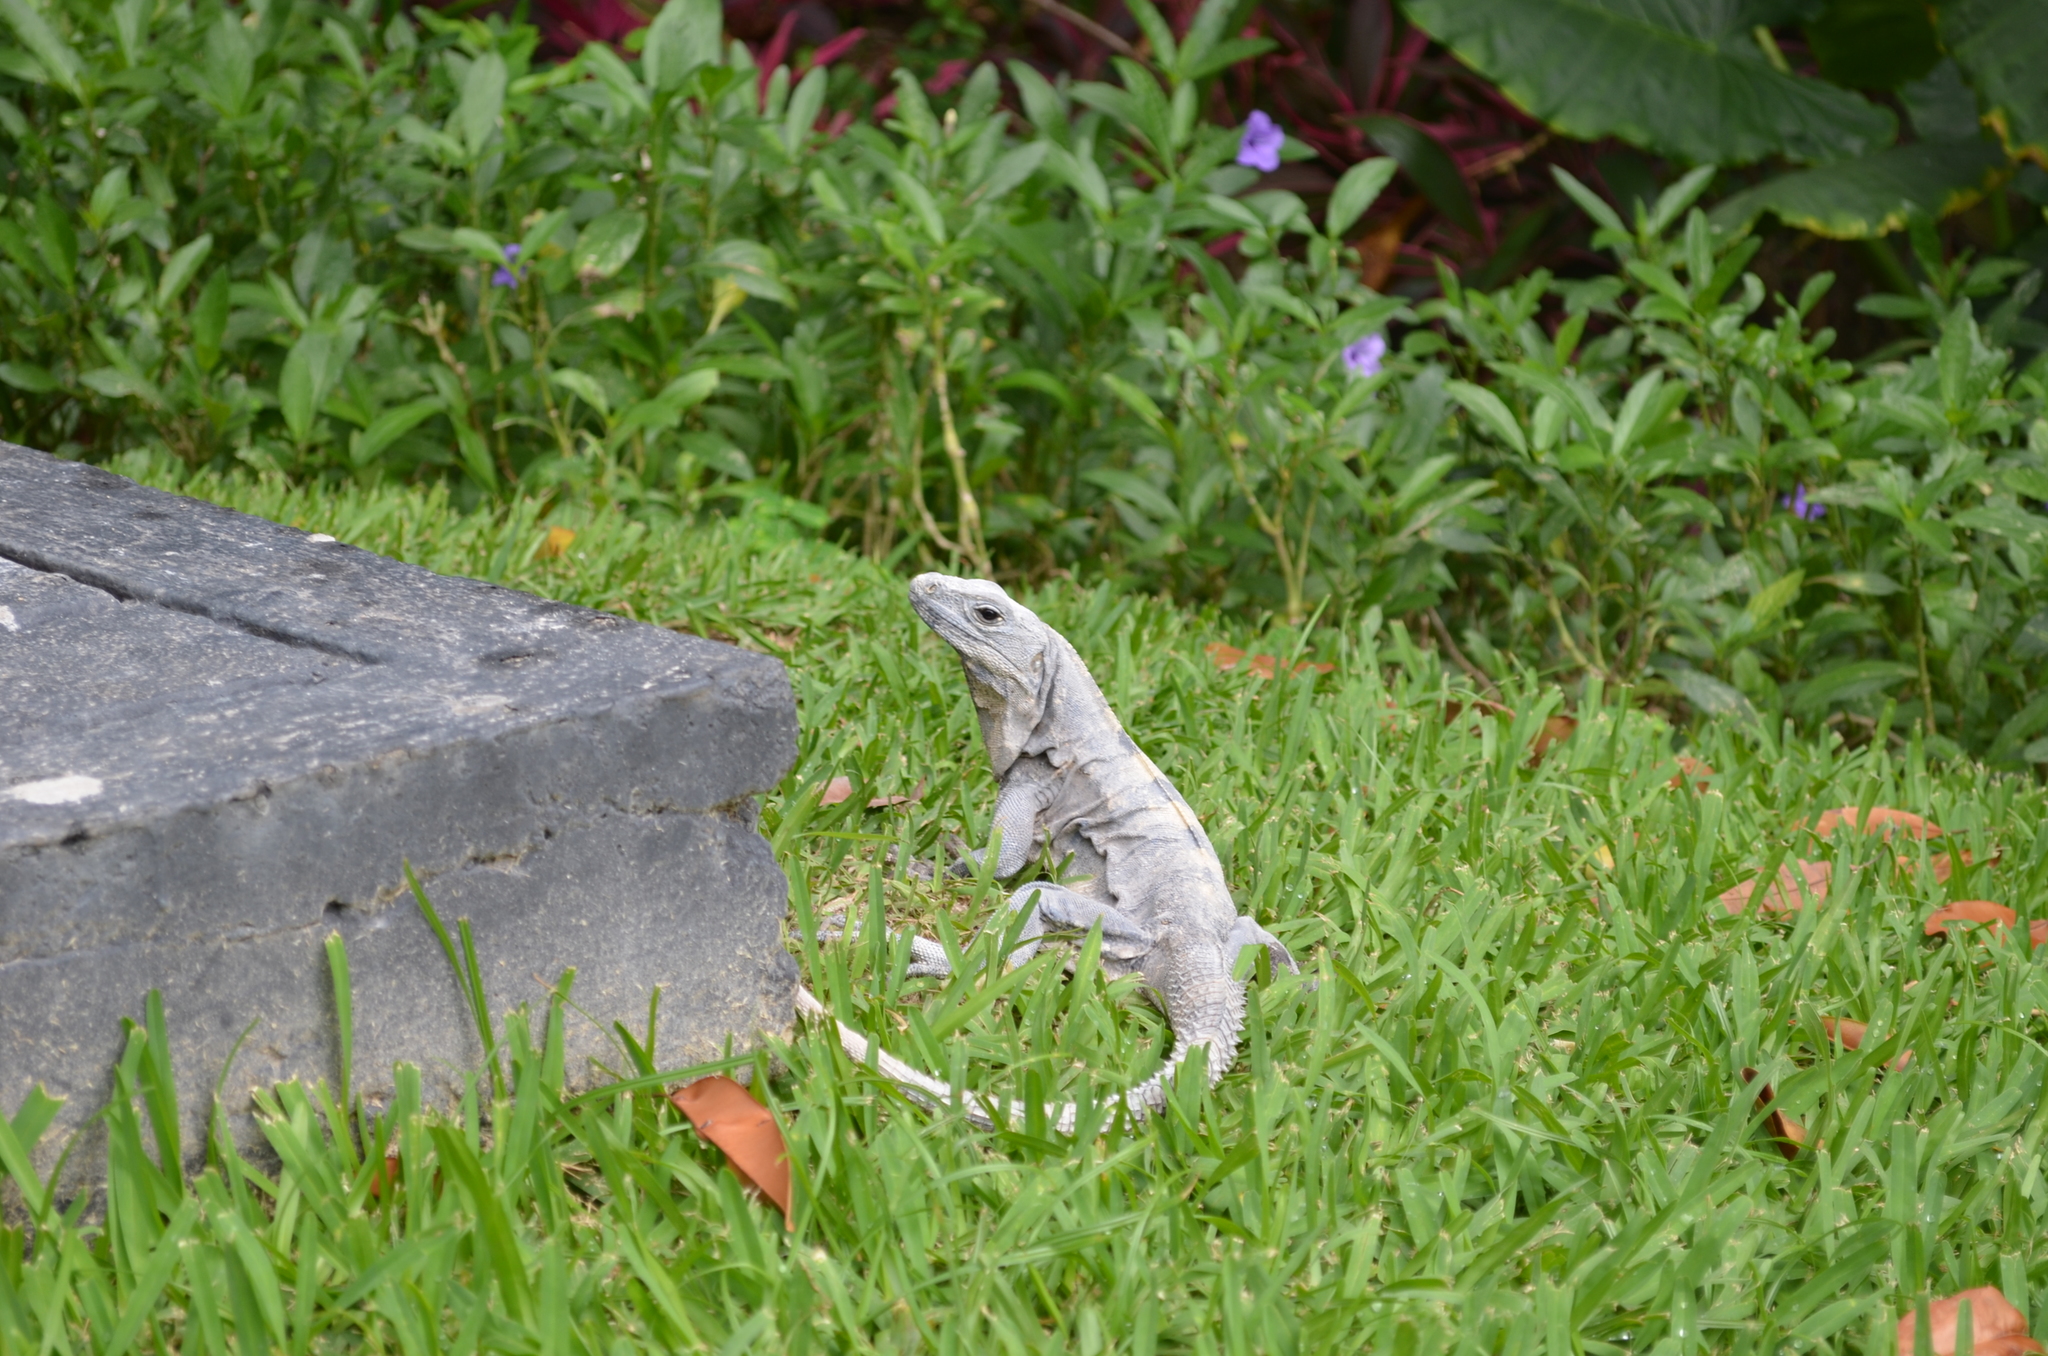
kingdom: Animalia
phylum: Chordata
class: Squamata
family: Iguanidae
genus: Ctenosaura
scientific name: Ctenosaura similis
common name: Black spiny-tailed iguana
